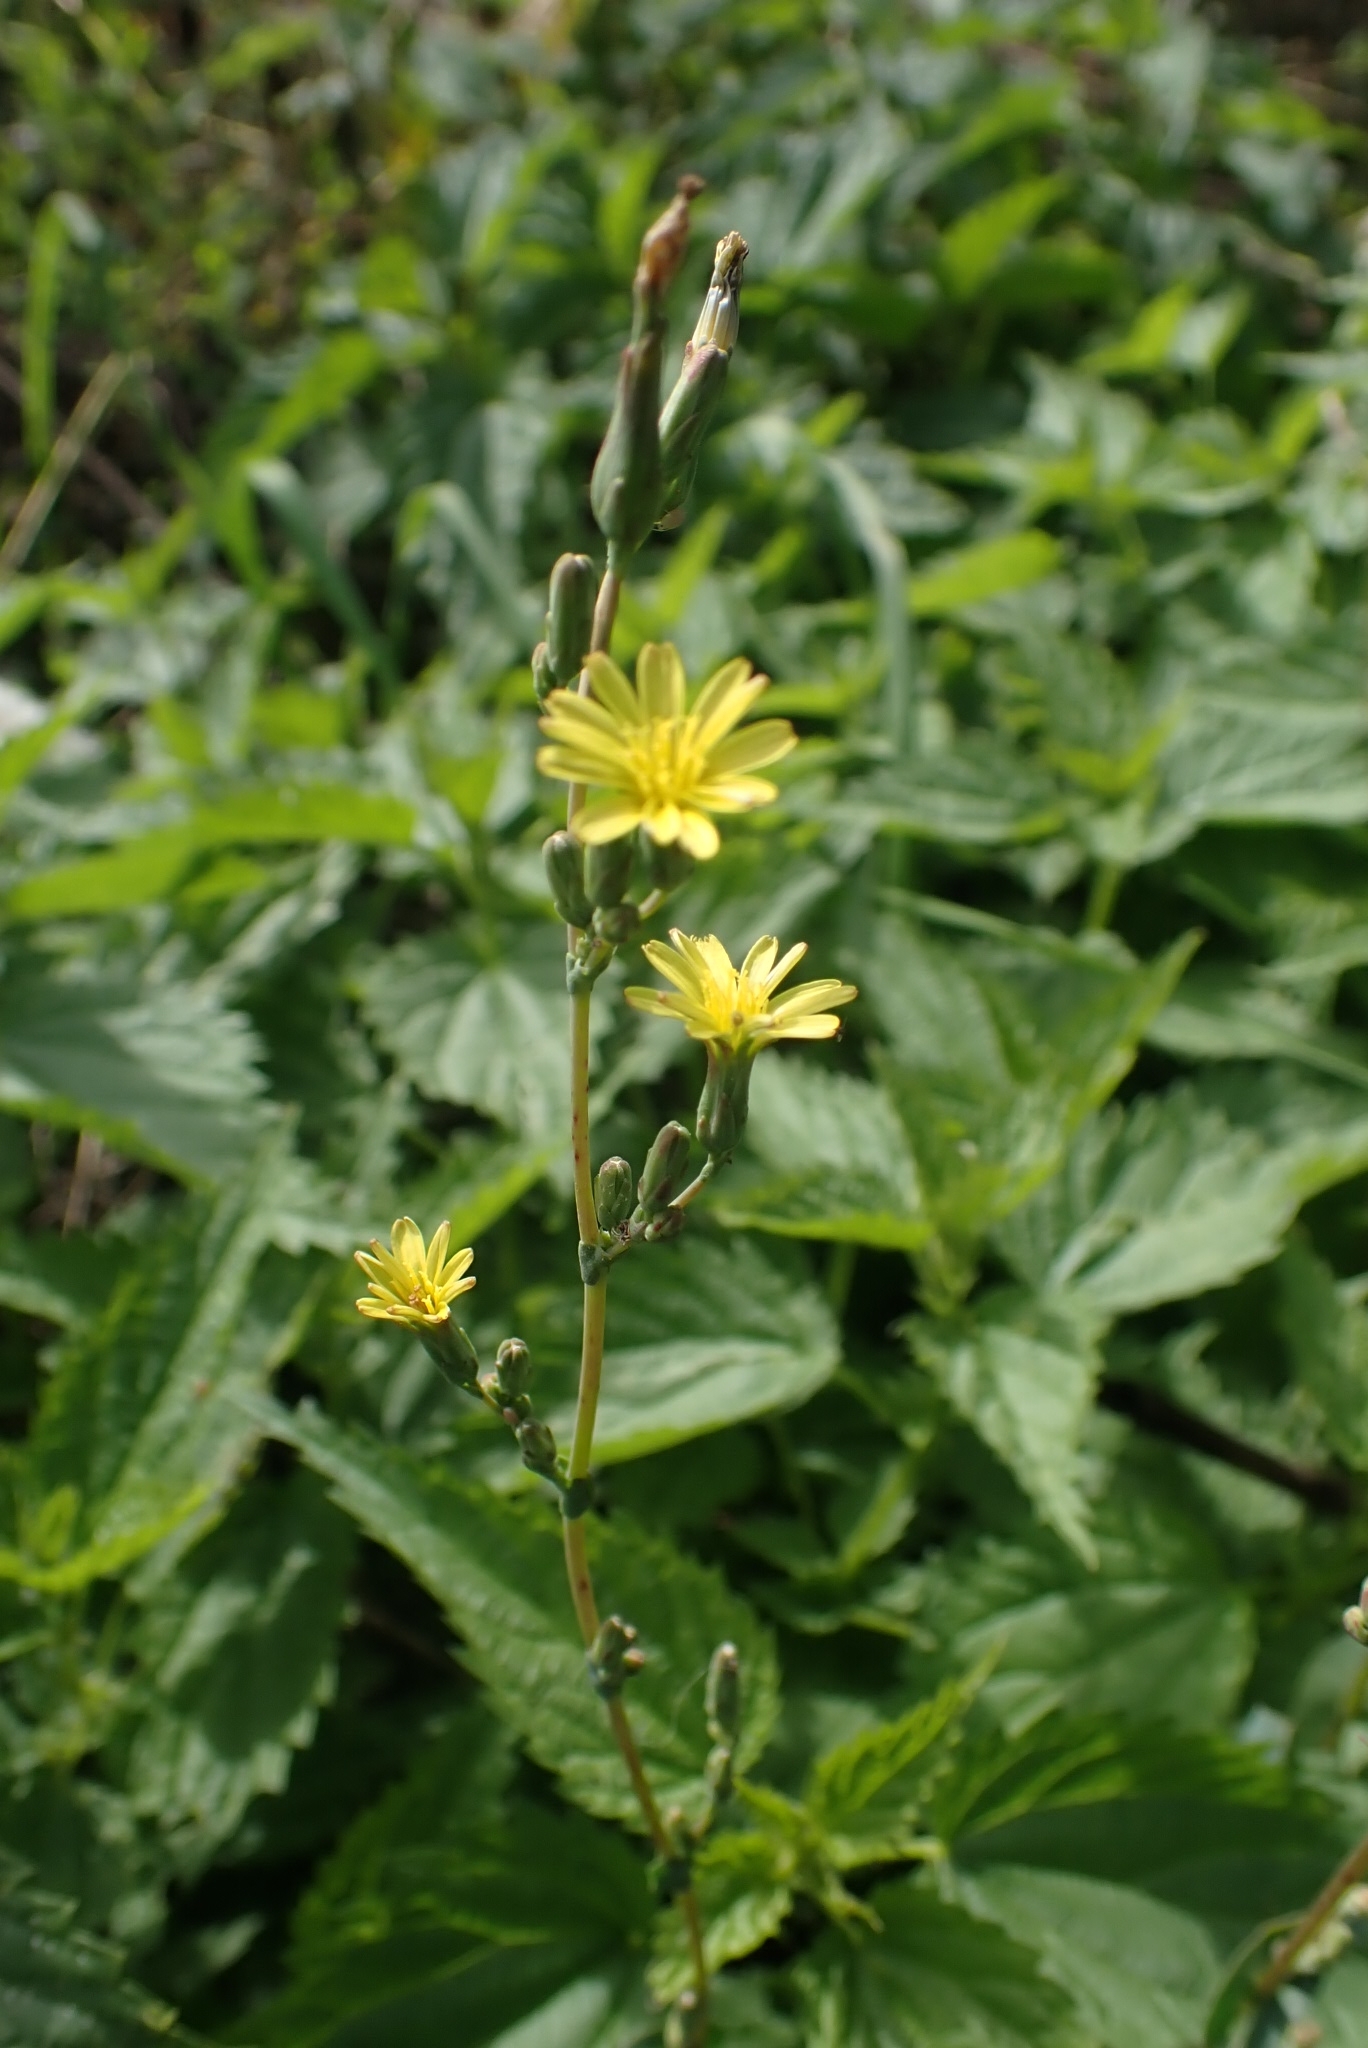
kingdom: Plantae
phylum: Tracheophyta
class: Magnoliopsida
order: Asterales
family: Asteraceae
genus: Lactuca
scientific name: Lactuca serriola
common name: Prickly lettuce
